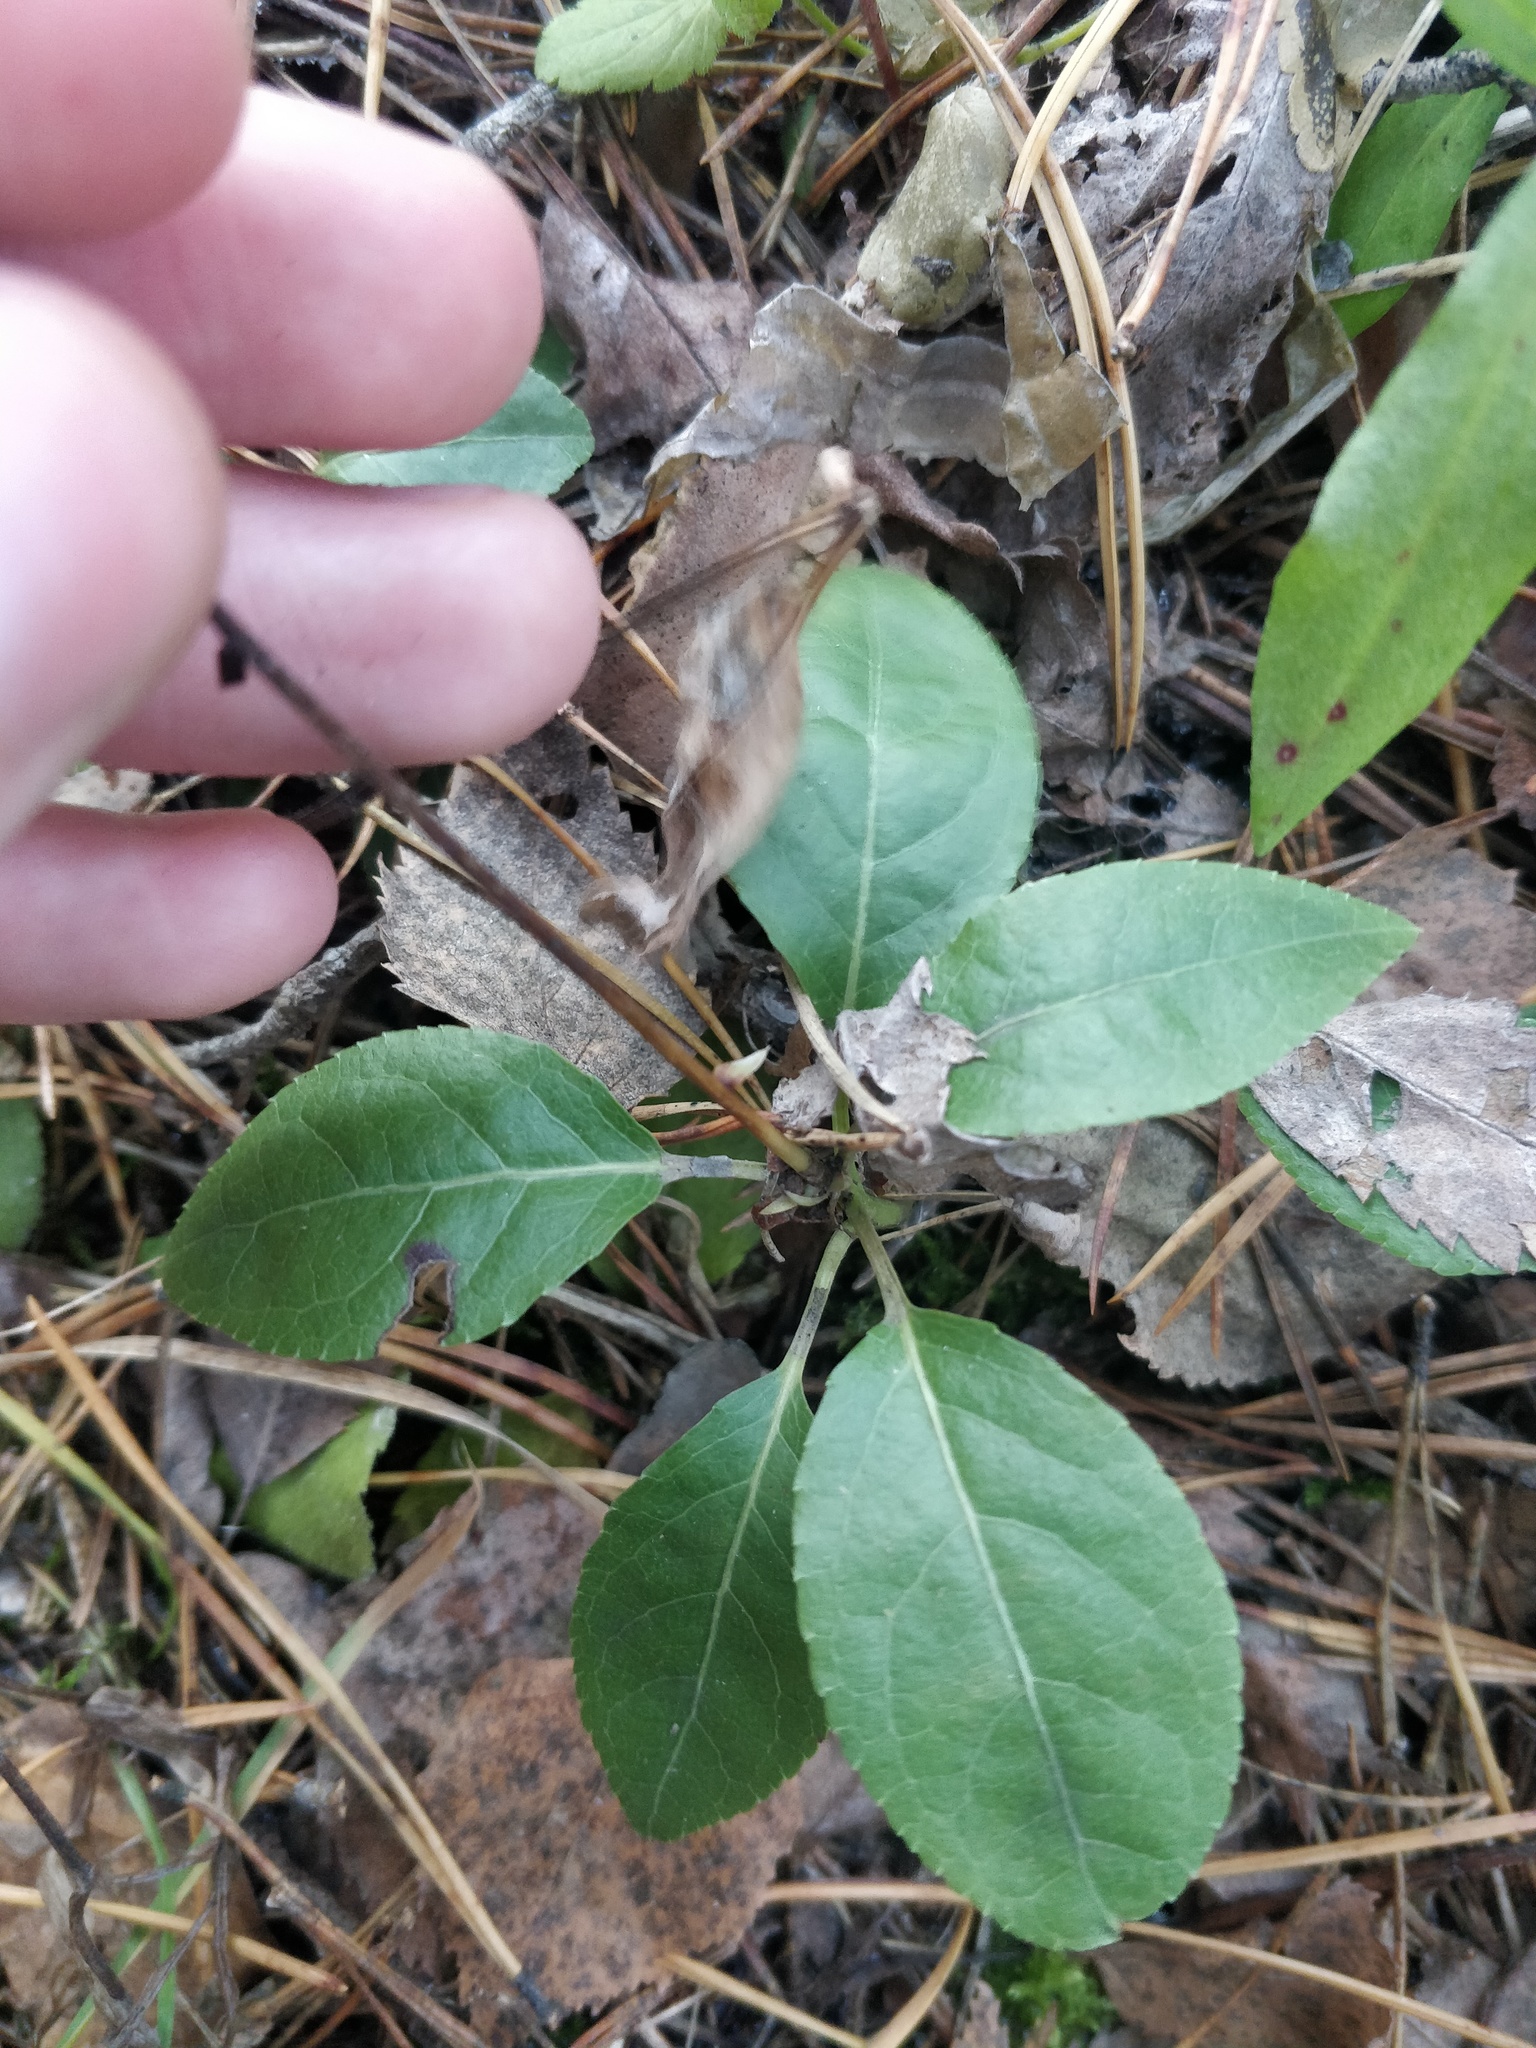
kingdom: Plantae
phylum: Tracheophyta
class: Magnoliopsida
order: Ericales
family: Ericaceae
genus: Orthilia
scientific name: Orthilia secunda
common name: One-sided orthilia
